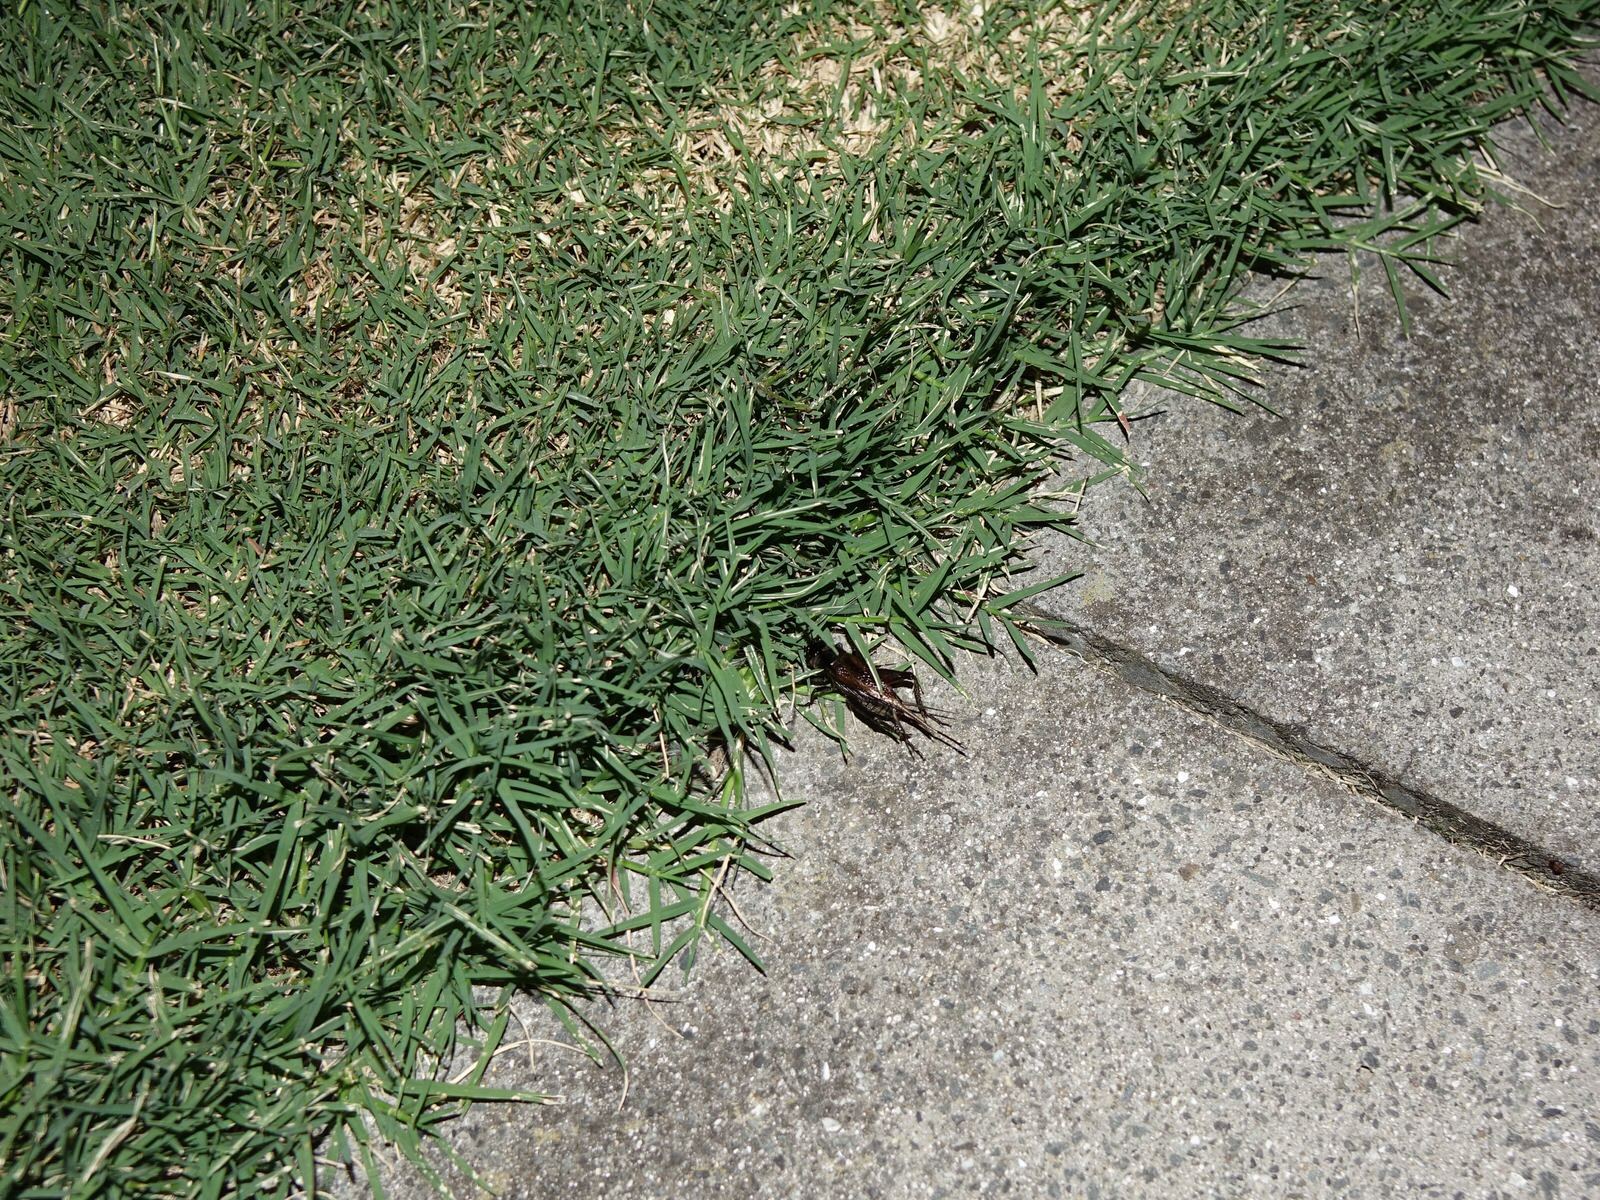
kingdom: Animalia
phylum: Arthropoda
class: Insecta
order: Orthoptera
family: Gryllidae
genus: Teleogryllus
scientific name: Teleogryllus commodus
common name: Black field cricket
